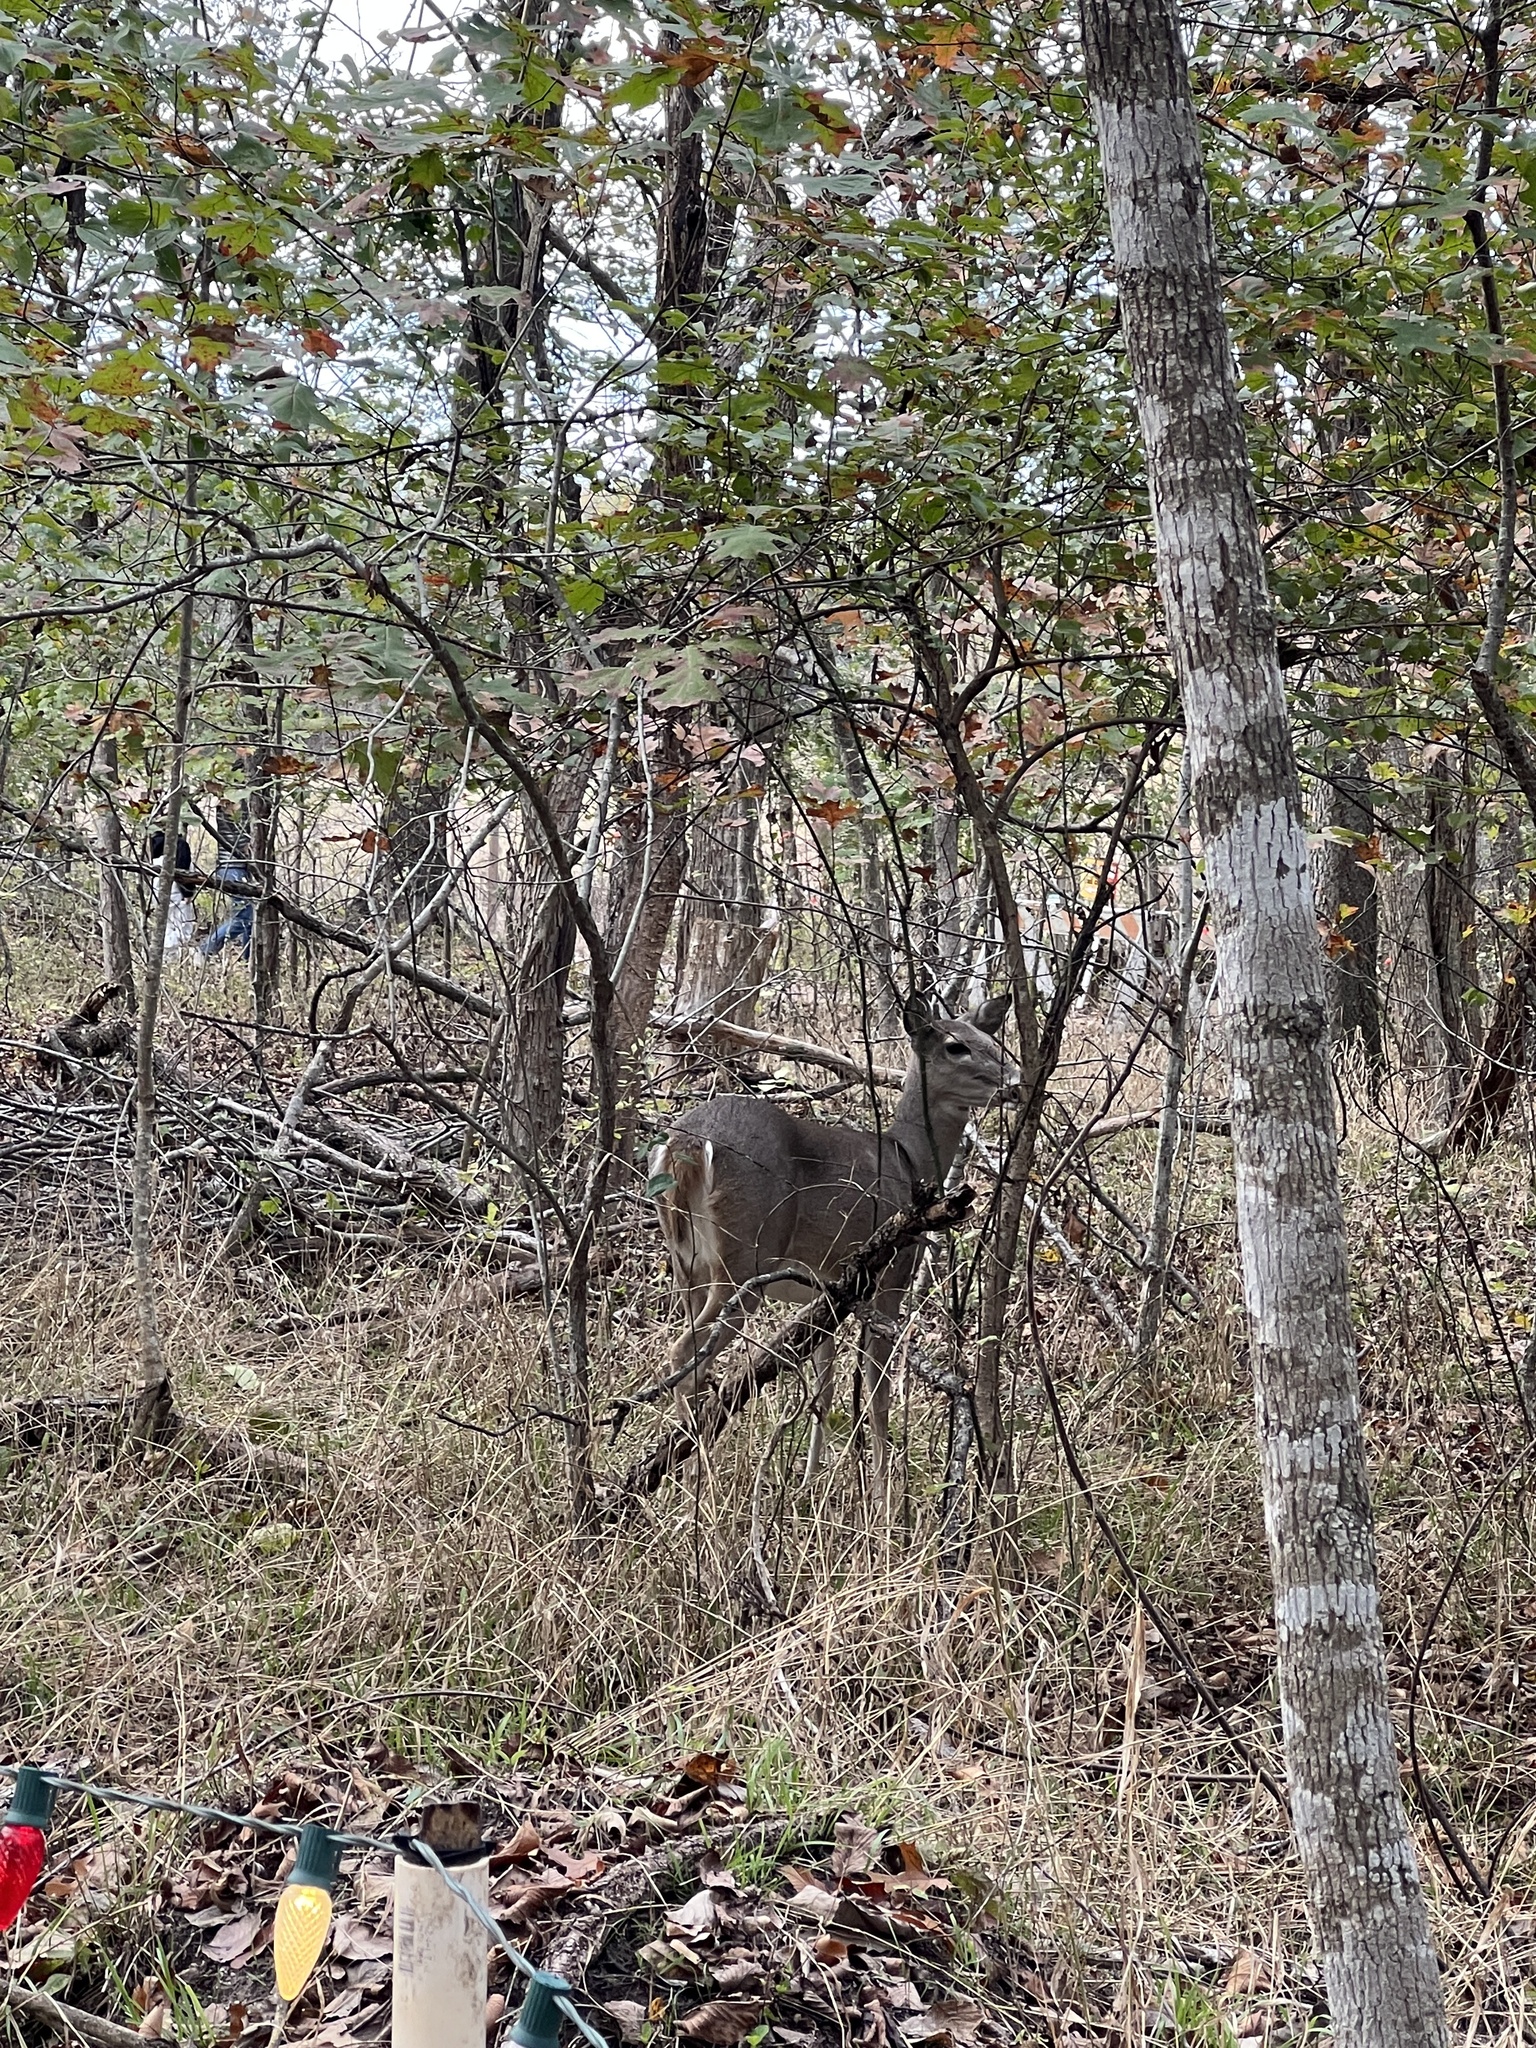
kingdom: Animalia
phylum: Chordata
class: Mammalia
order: Artiodactyla
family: Cervidae
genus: Odocoileus
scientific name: Odocoileus virginianus
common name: White-tailed deer
